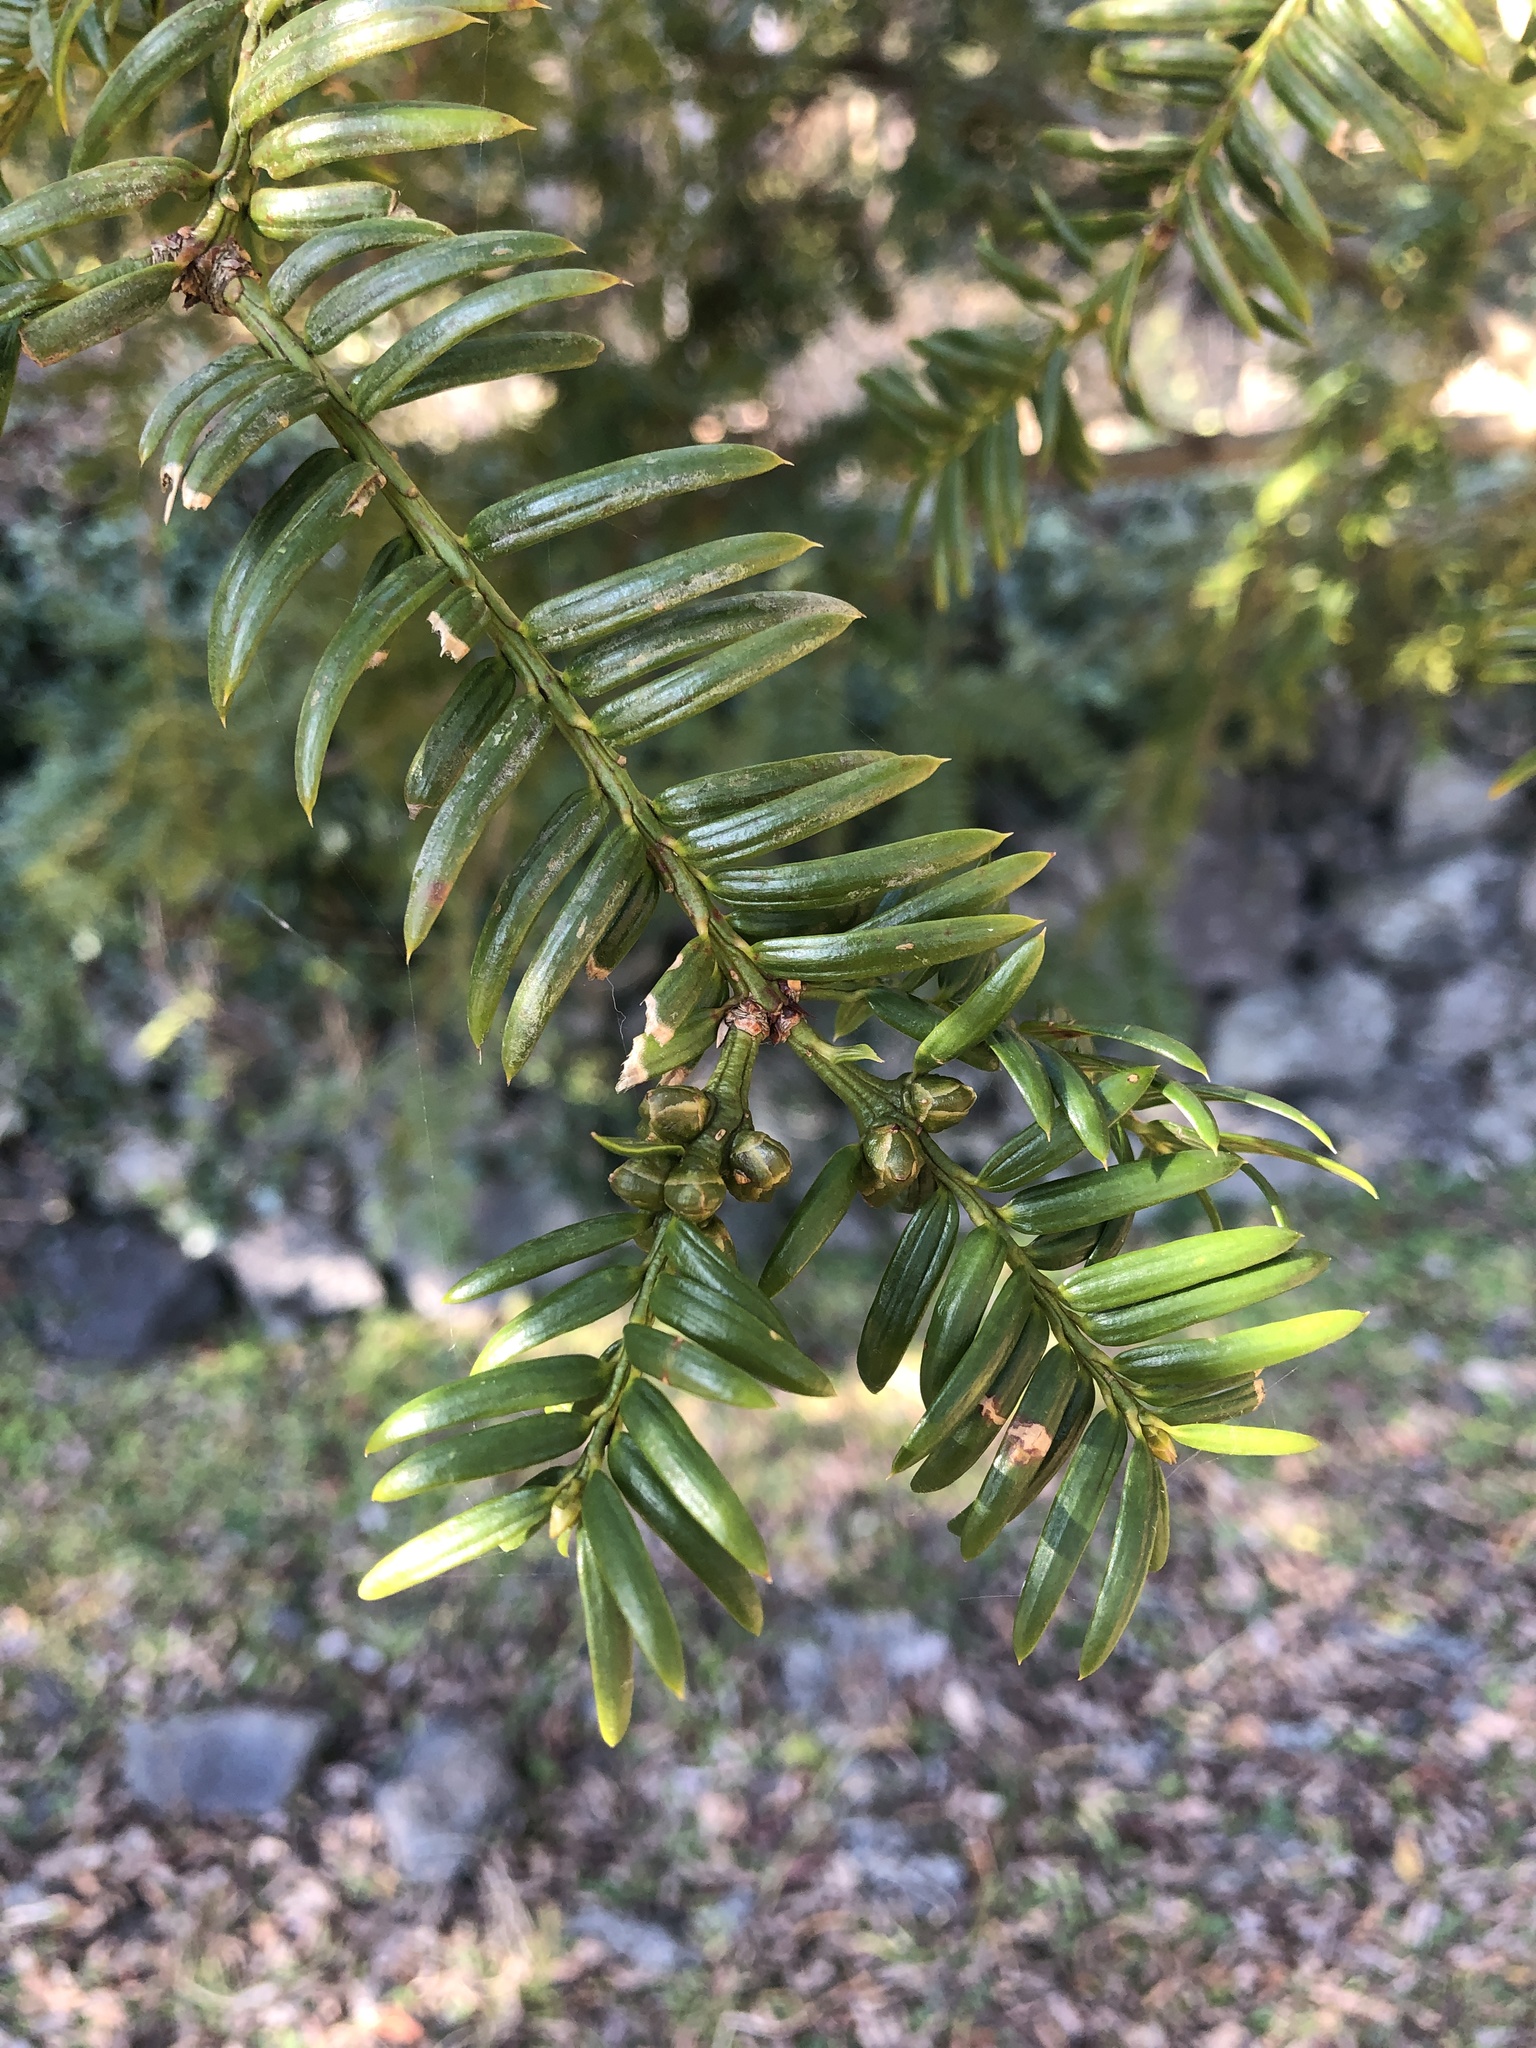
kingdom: Plantae
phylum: Tracheophyta
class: Pinopsida
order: Pinales
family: Taxaceae
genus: Torreya
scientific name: Torreya nucifera
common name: Japanese nutmeg tree
